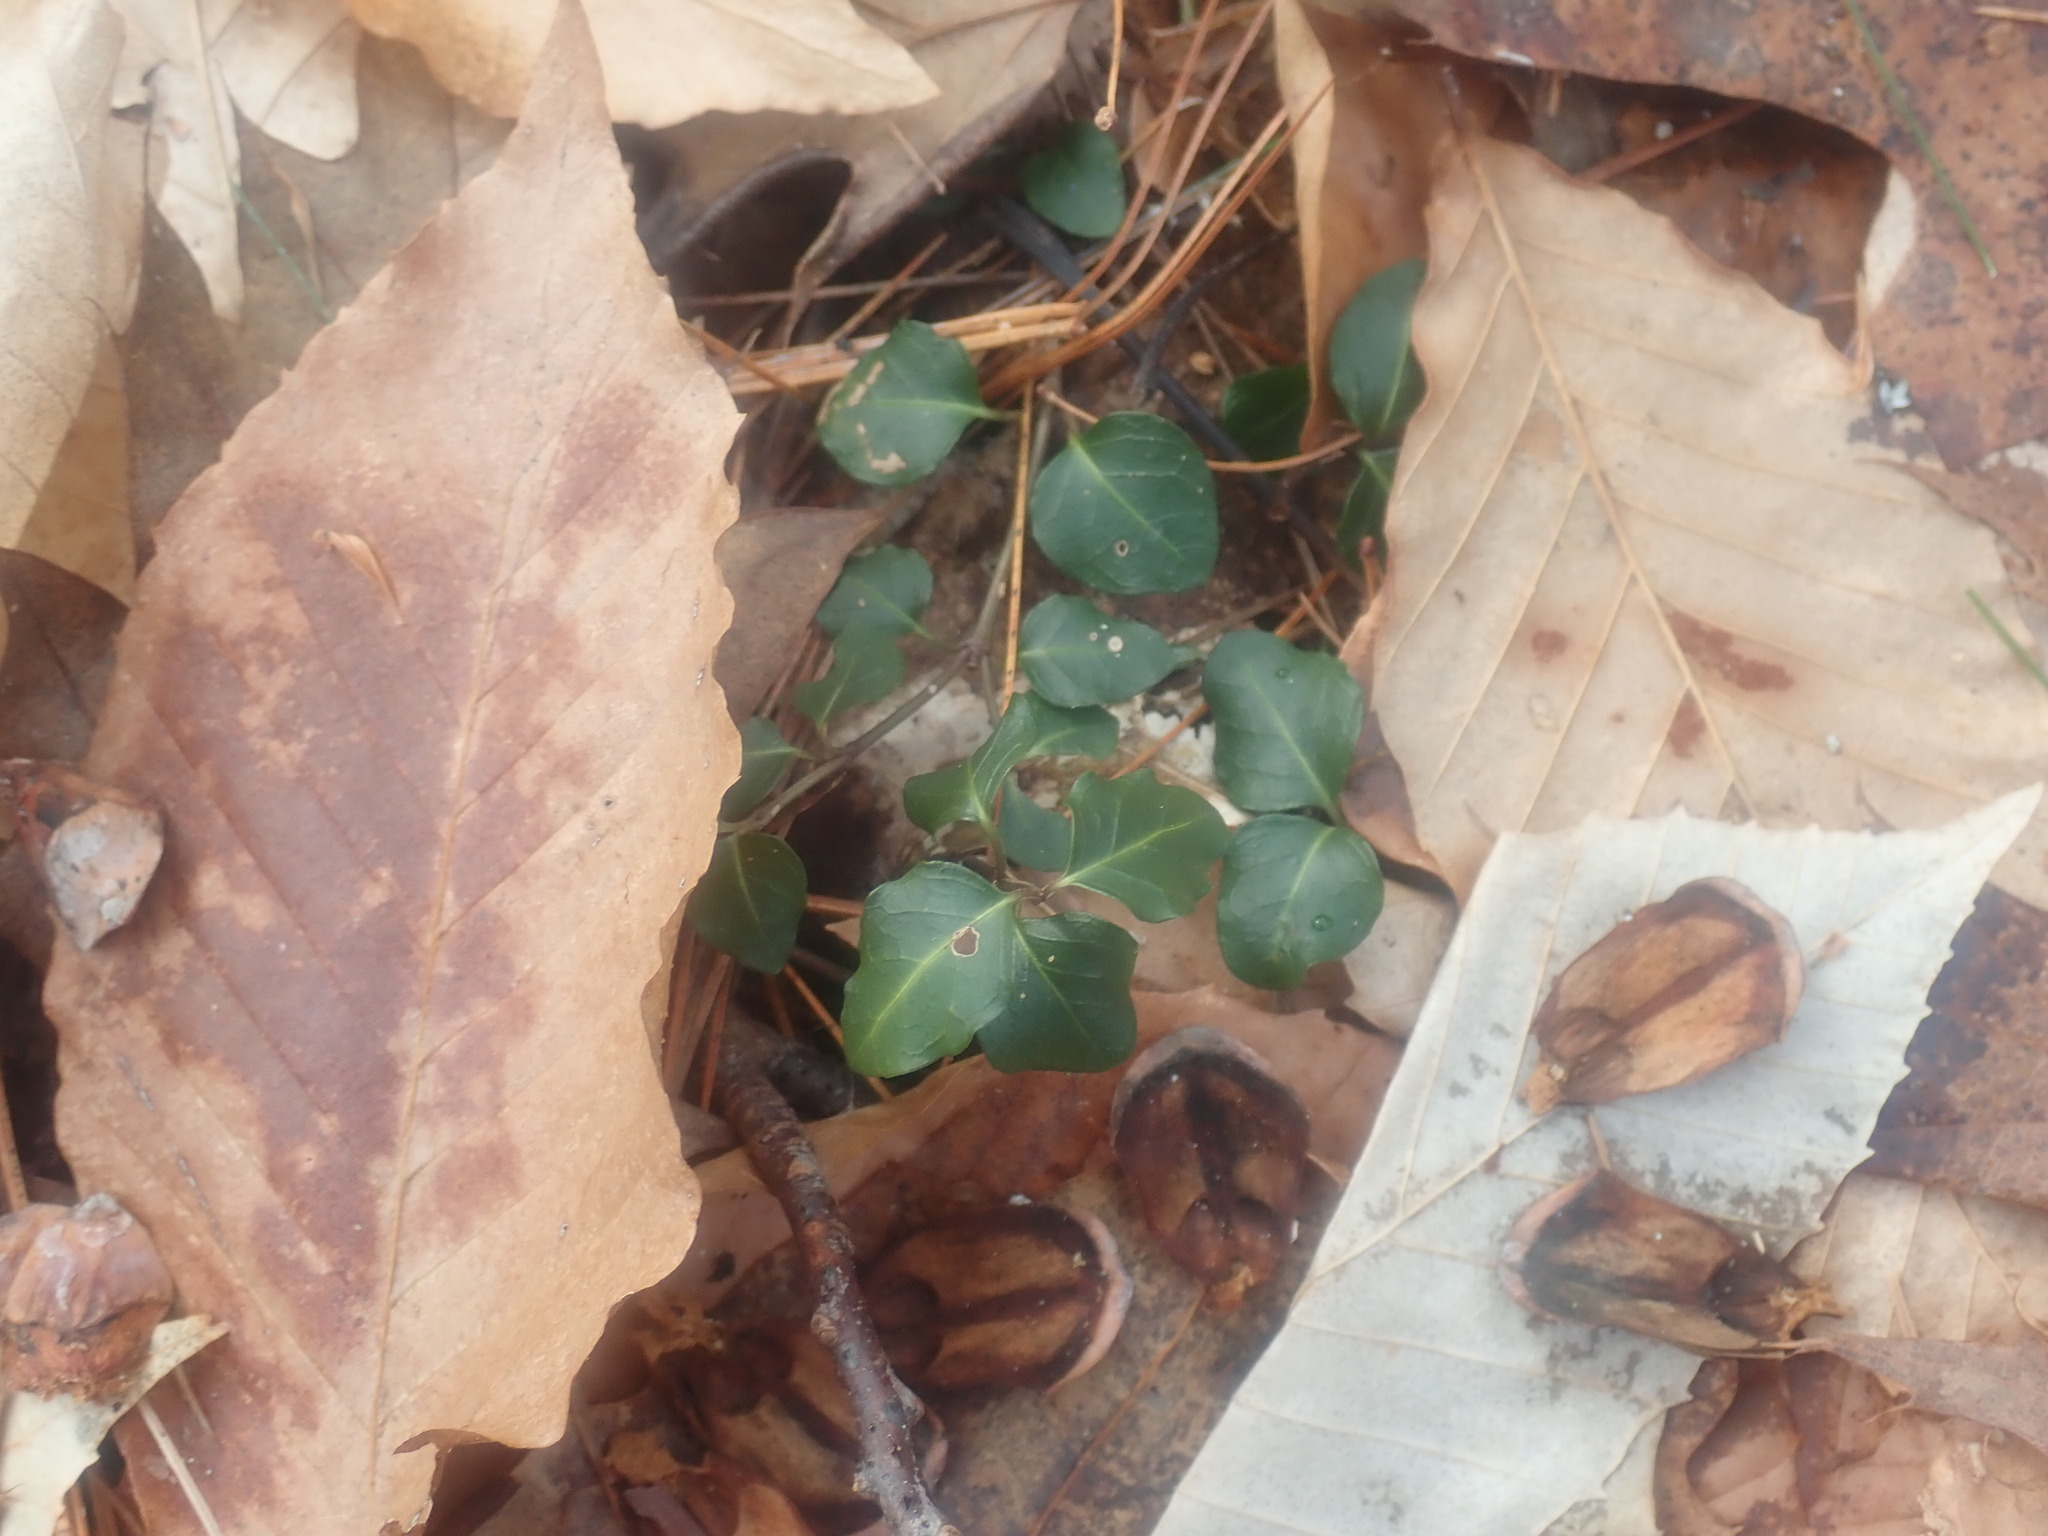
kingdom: Plantae
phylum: Tracheophyta
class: Magnoliopsida
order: Gentianales
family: Rubiaceae
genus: Mitchella
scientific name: Mitchella repens
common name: Partridge-berry
